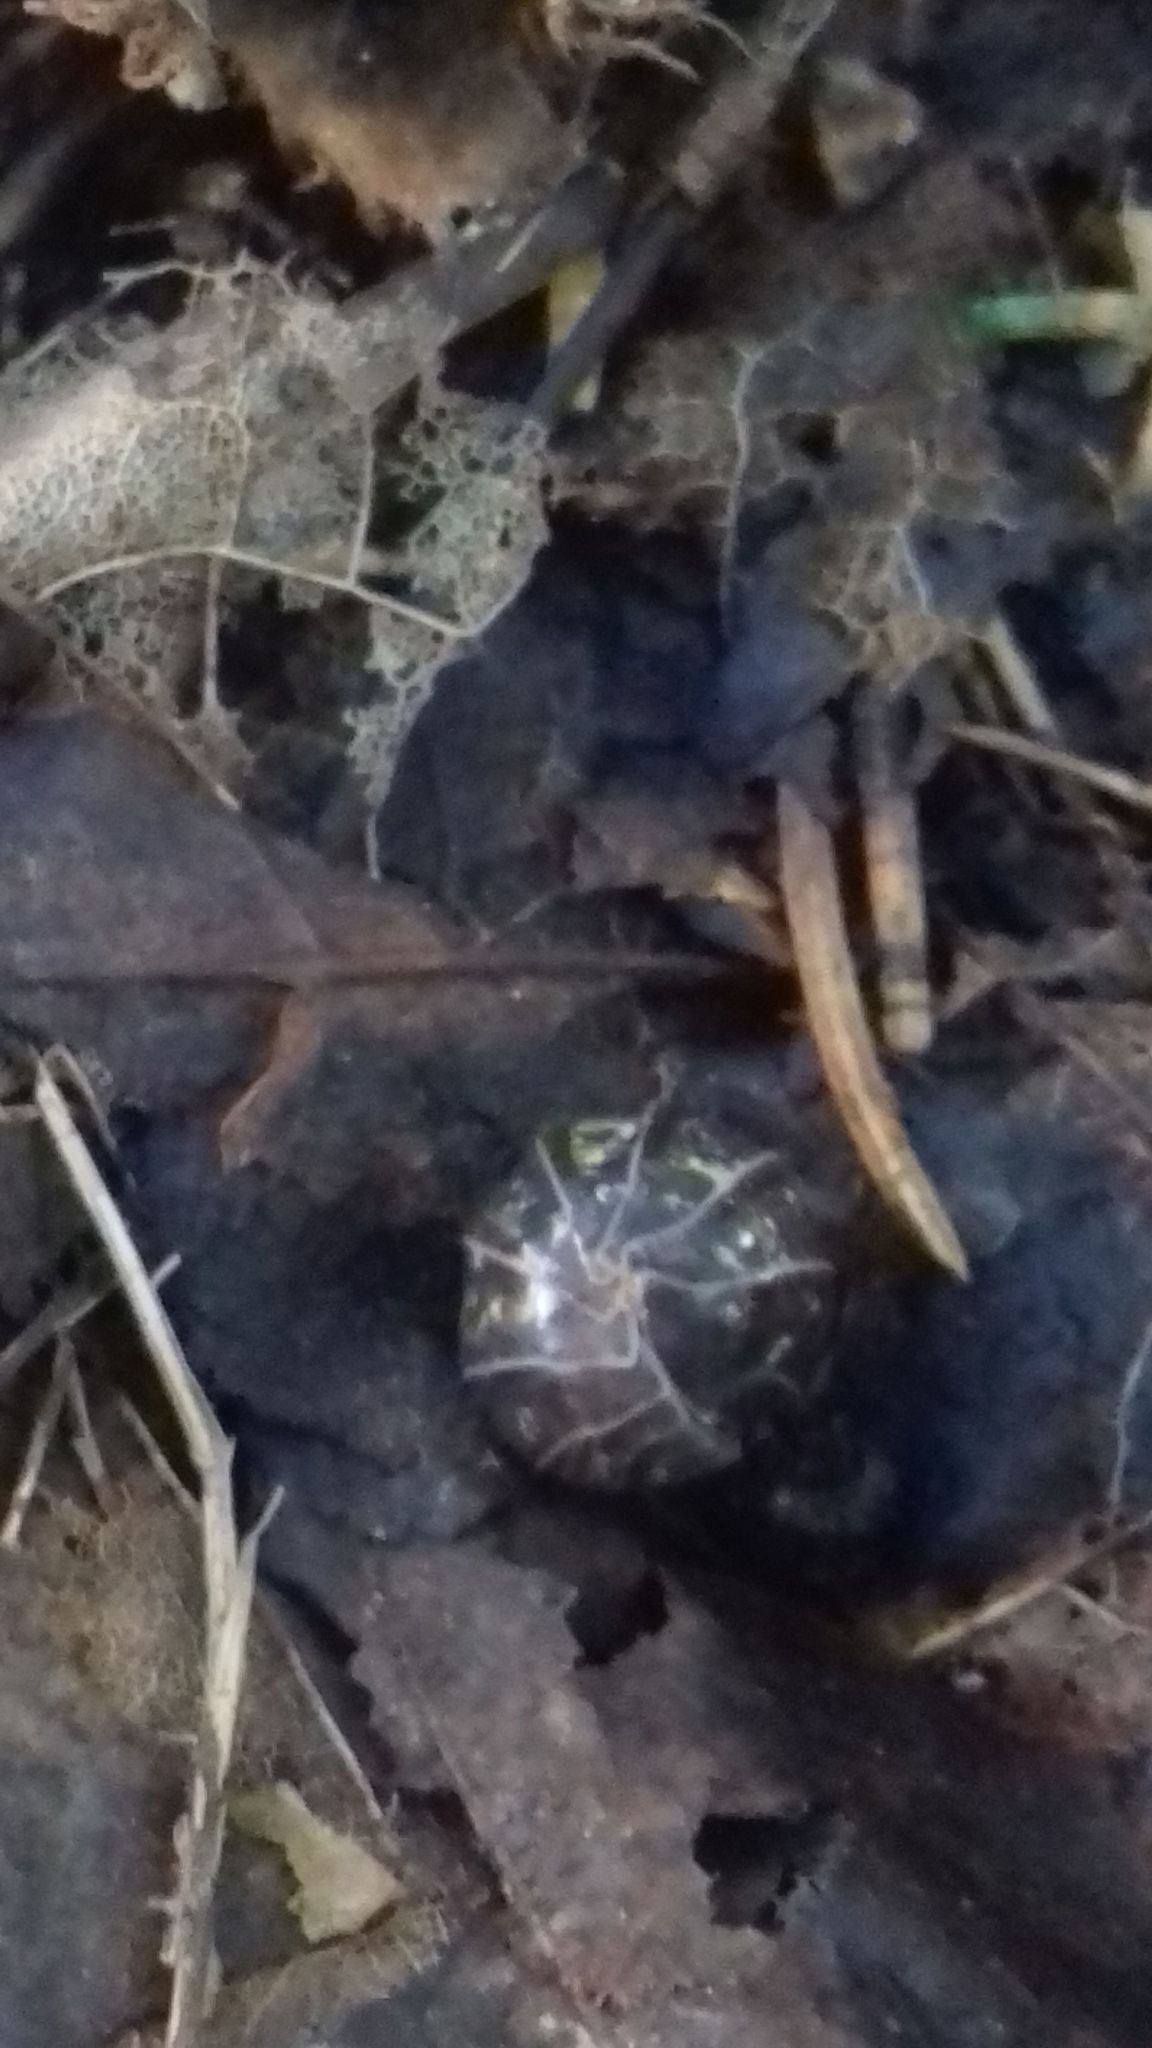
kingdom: Animalia
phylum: Arthropoda
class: Malacostraca
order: Isopoda
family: Armadillidiidae
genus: Armadillidium
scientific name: Armadillidium vulgare
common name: Common pill woodlouse
